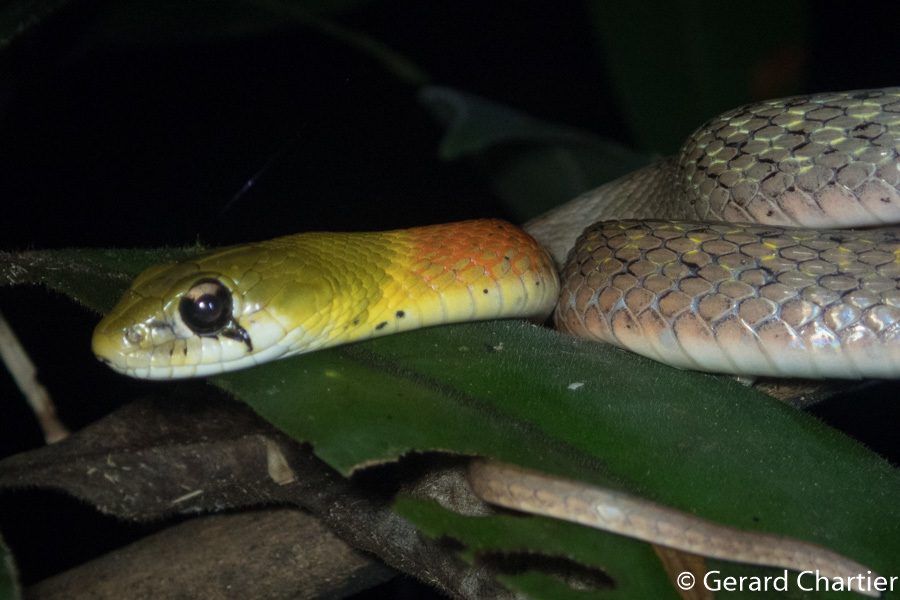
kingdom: Animalia
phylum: Chordata
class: Squamata
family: Colubridae
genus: Rhabdophis
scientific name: Rhabdophis
